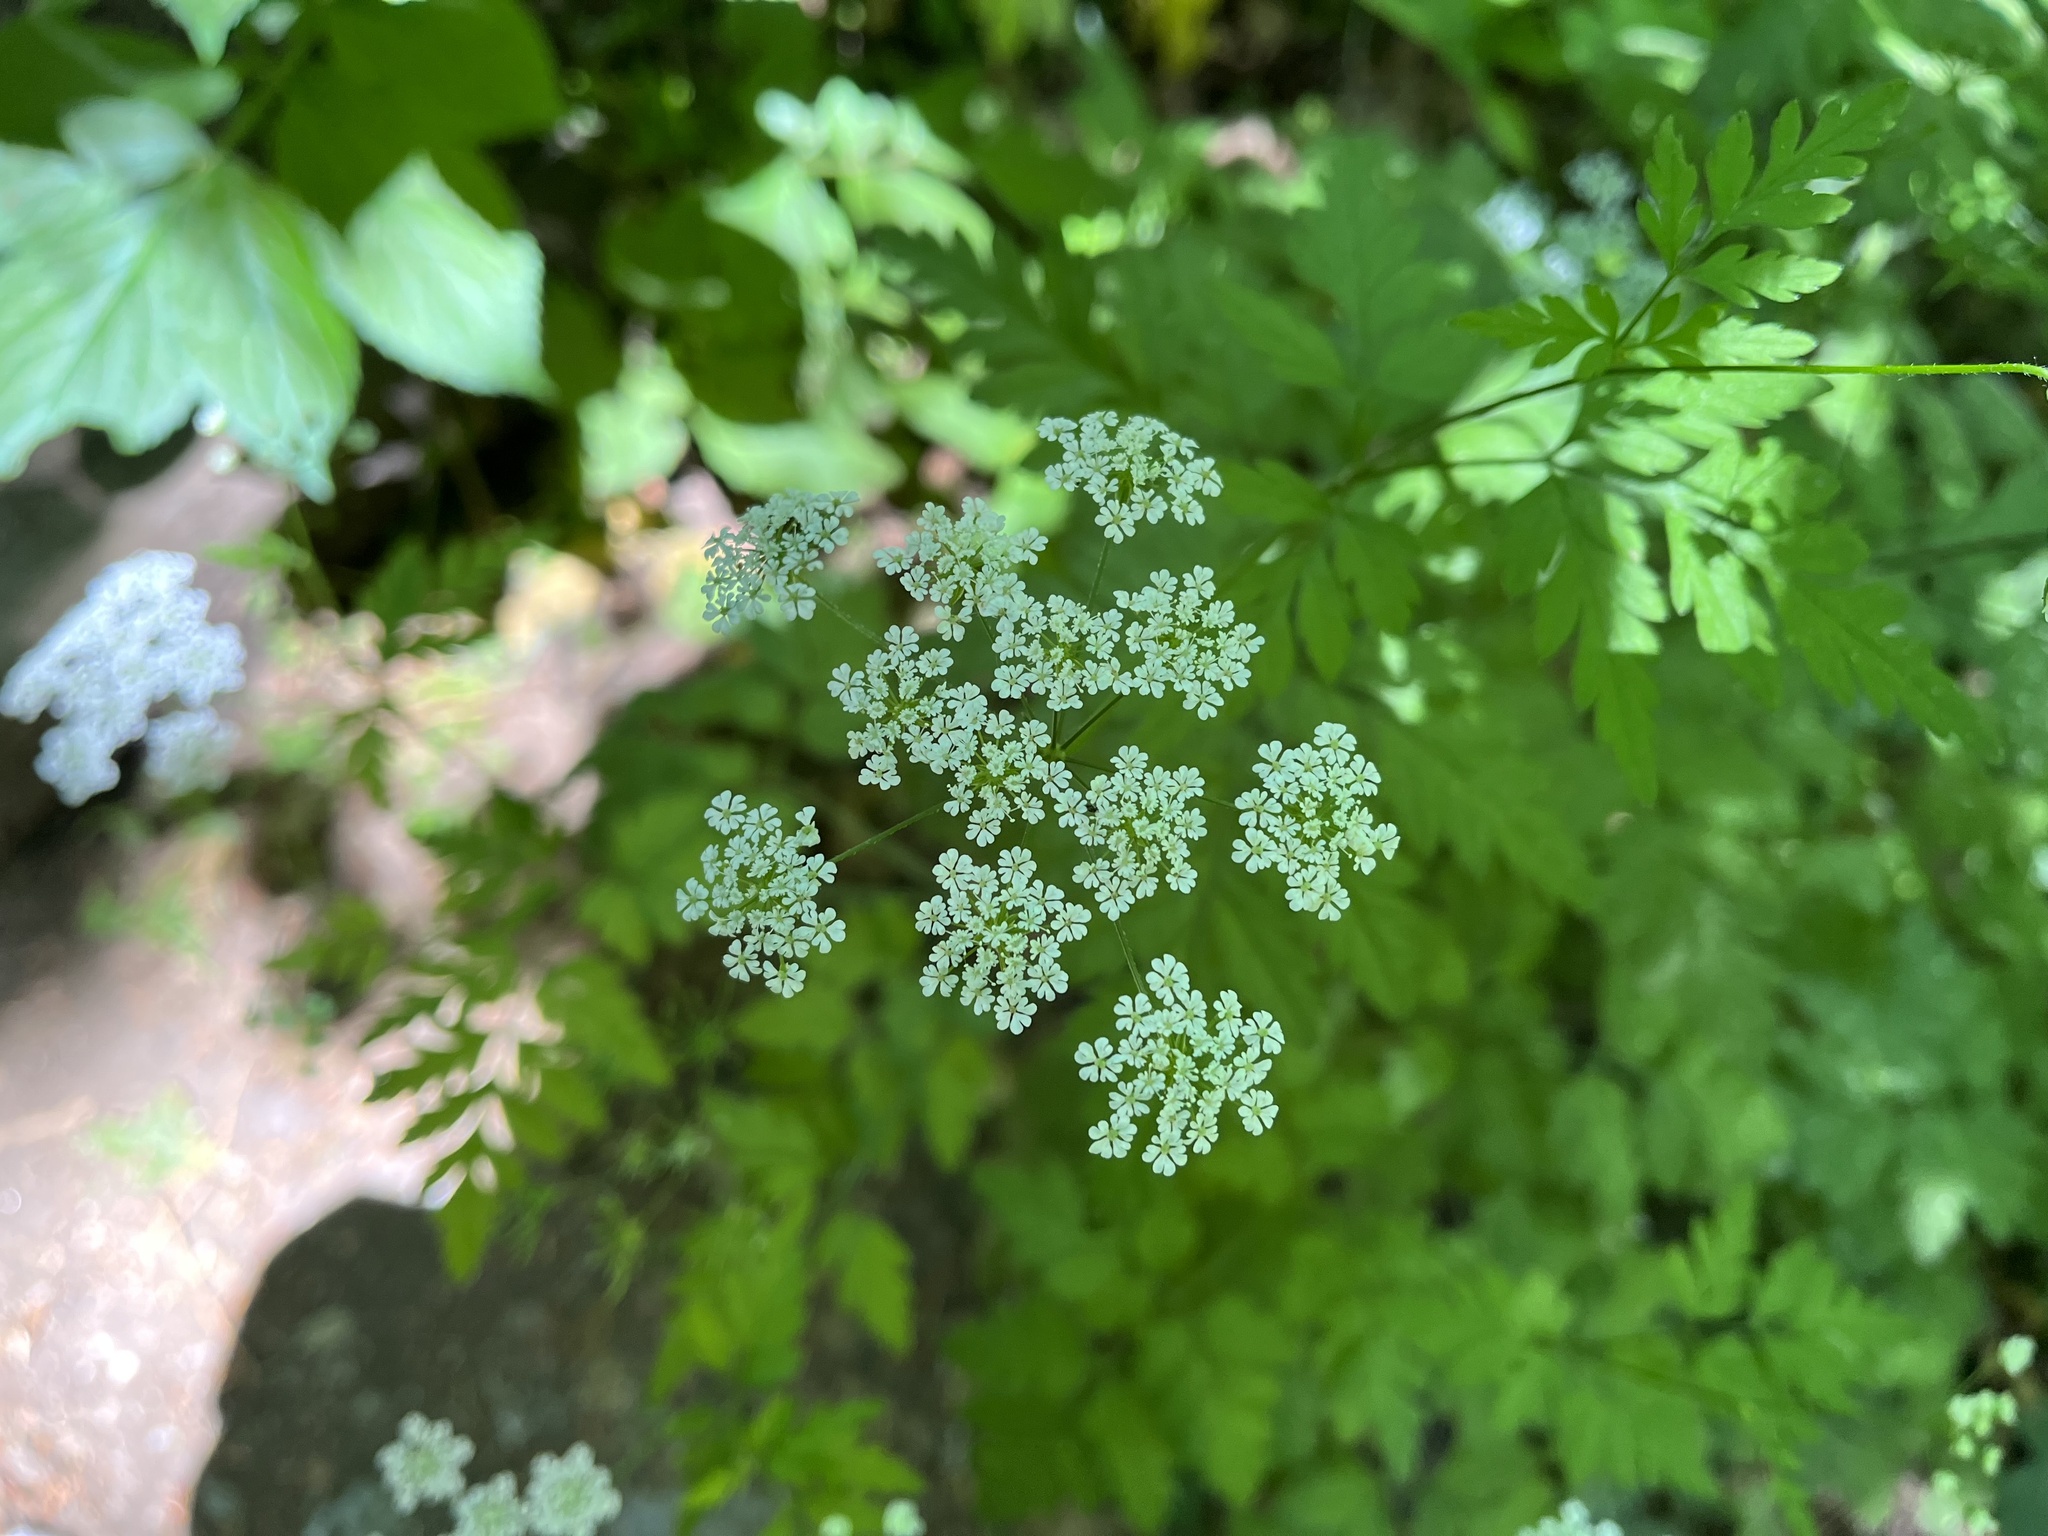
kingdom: Plantae
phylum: Tracheophyta
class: Magnoliopsida
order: Apiales
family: Apiaceae
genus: Chaerophyllum
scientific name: Chaerophyllum temulum
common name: Rough chervil
